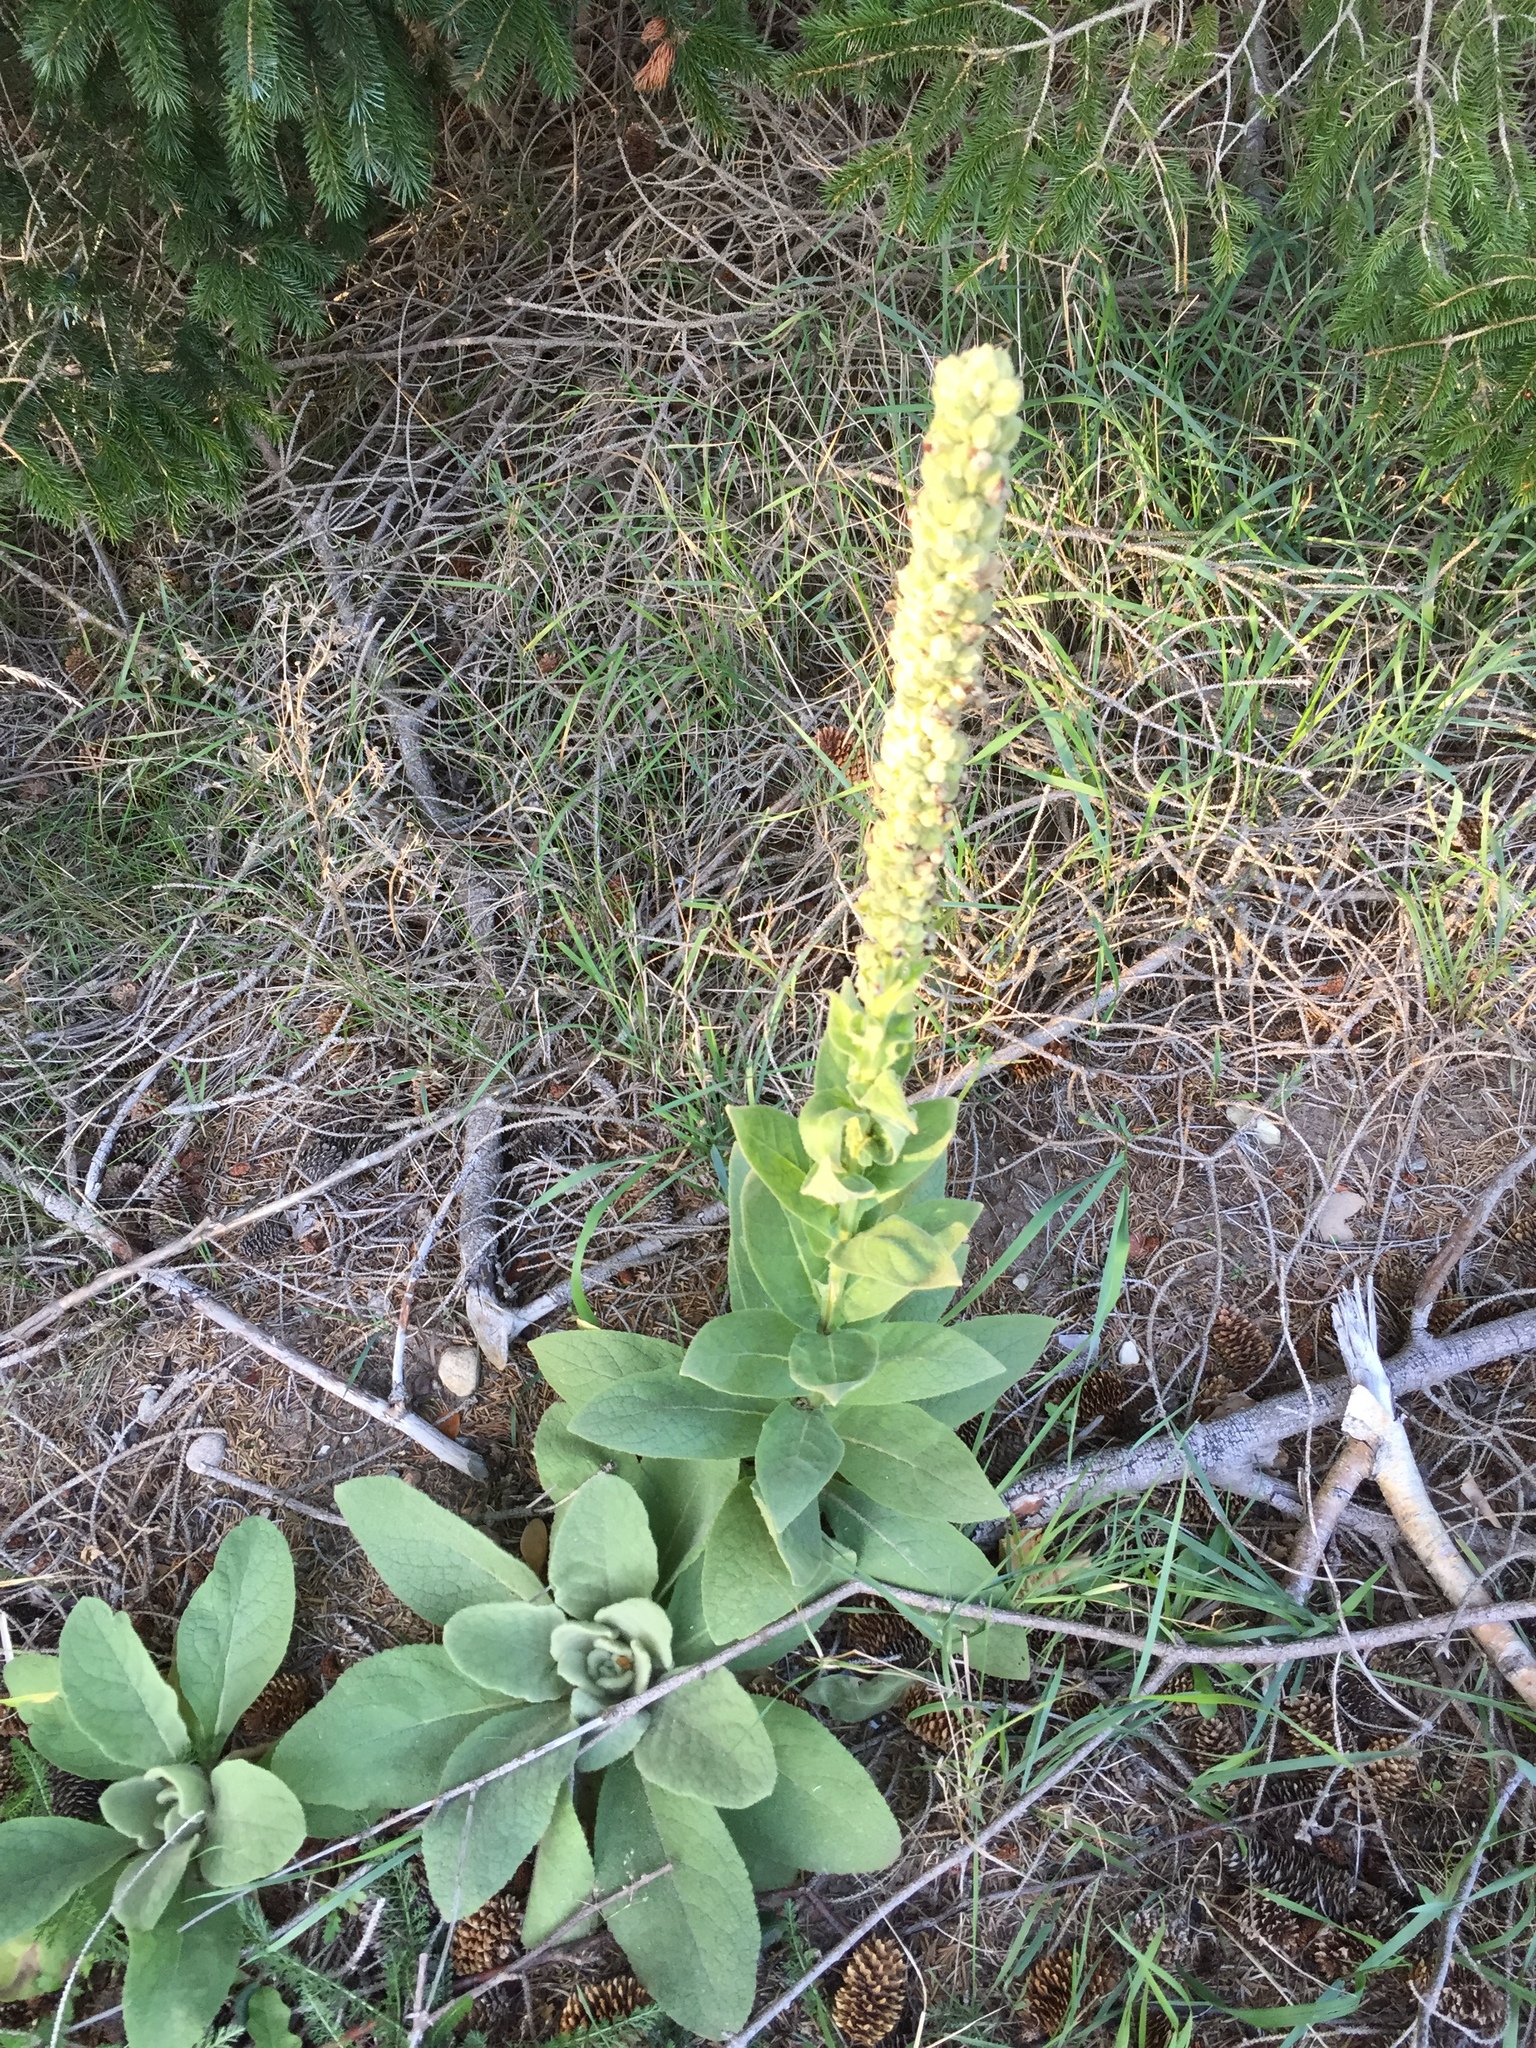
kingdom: Plantae
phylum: Tracheophyta
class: Magnoliopsida
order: Lamiales
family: Scrophulariaceae
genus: Verbascum
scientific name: Verbascum thapsus
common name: Common mullein
